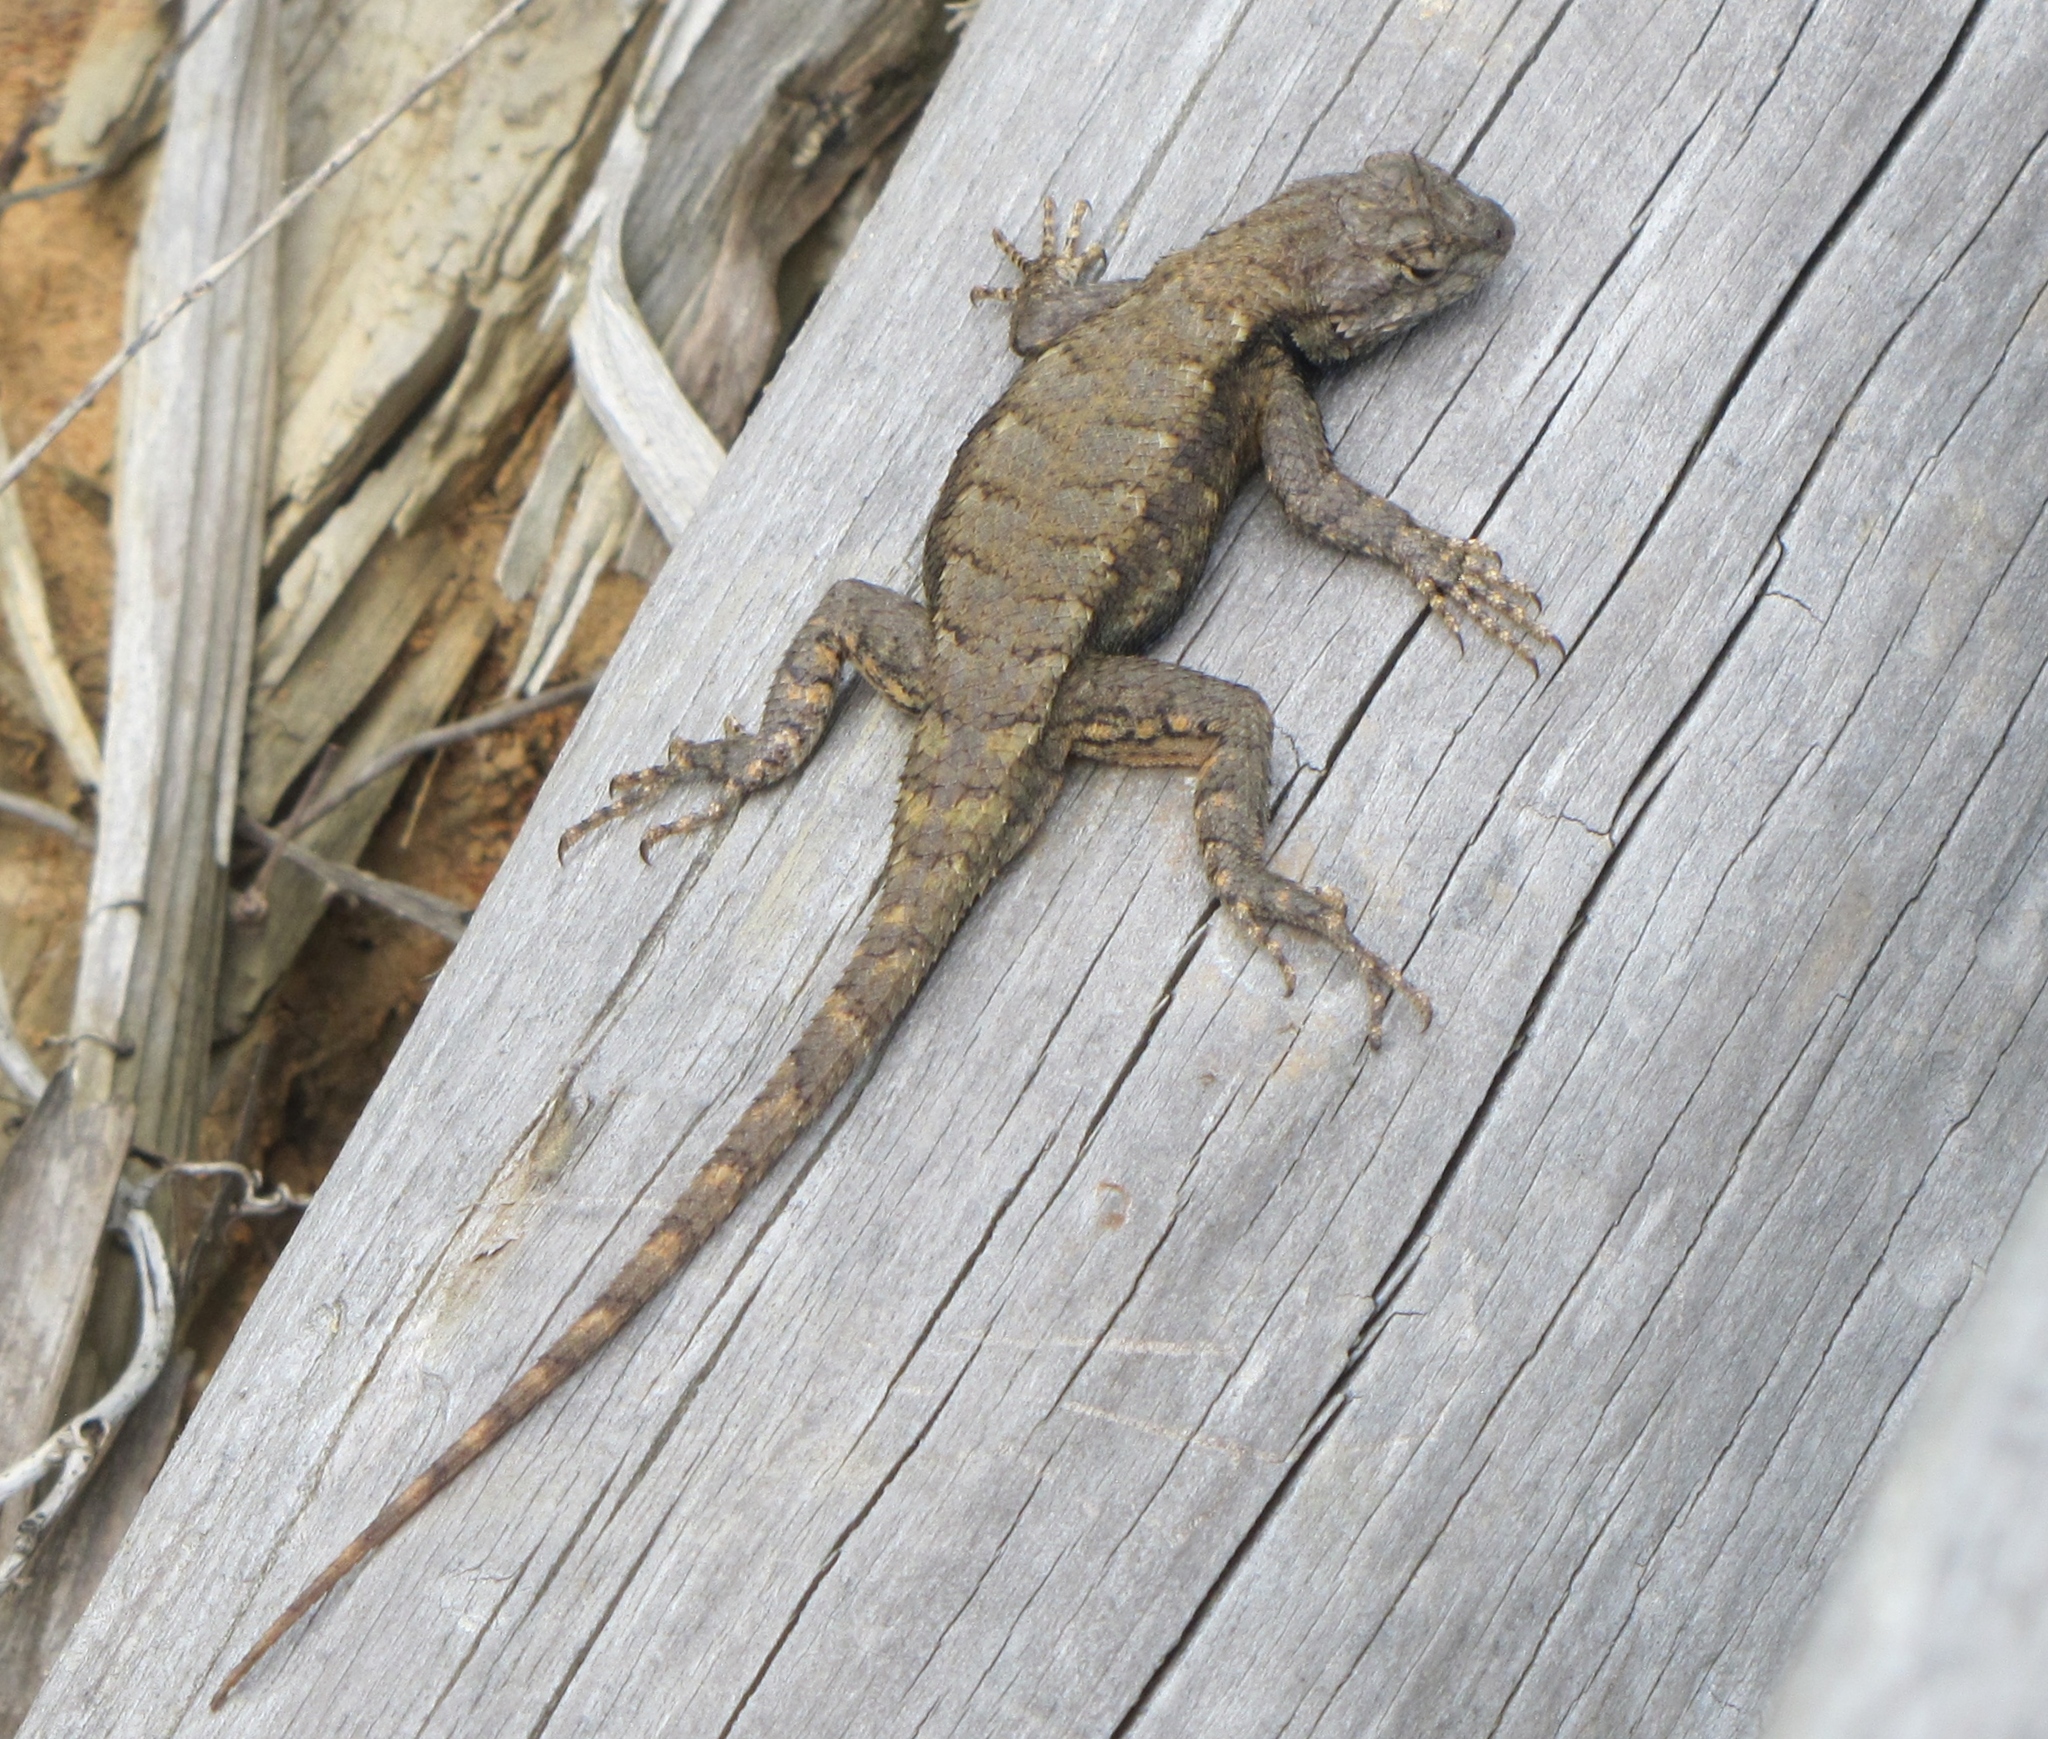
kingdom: Animalia
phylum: Chordata
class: Squamata
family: Phrynosomatidae
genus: Sceloporus
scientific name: Sceloporus undulatus
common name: Eastern fence lizard
